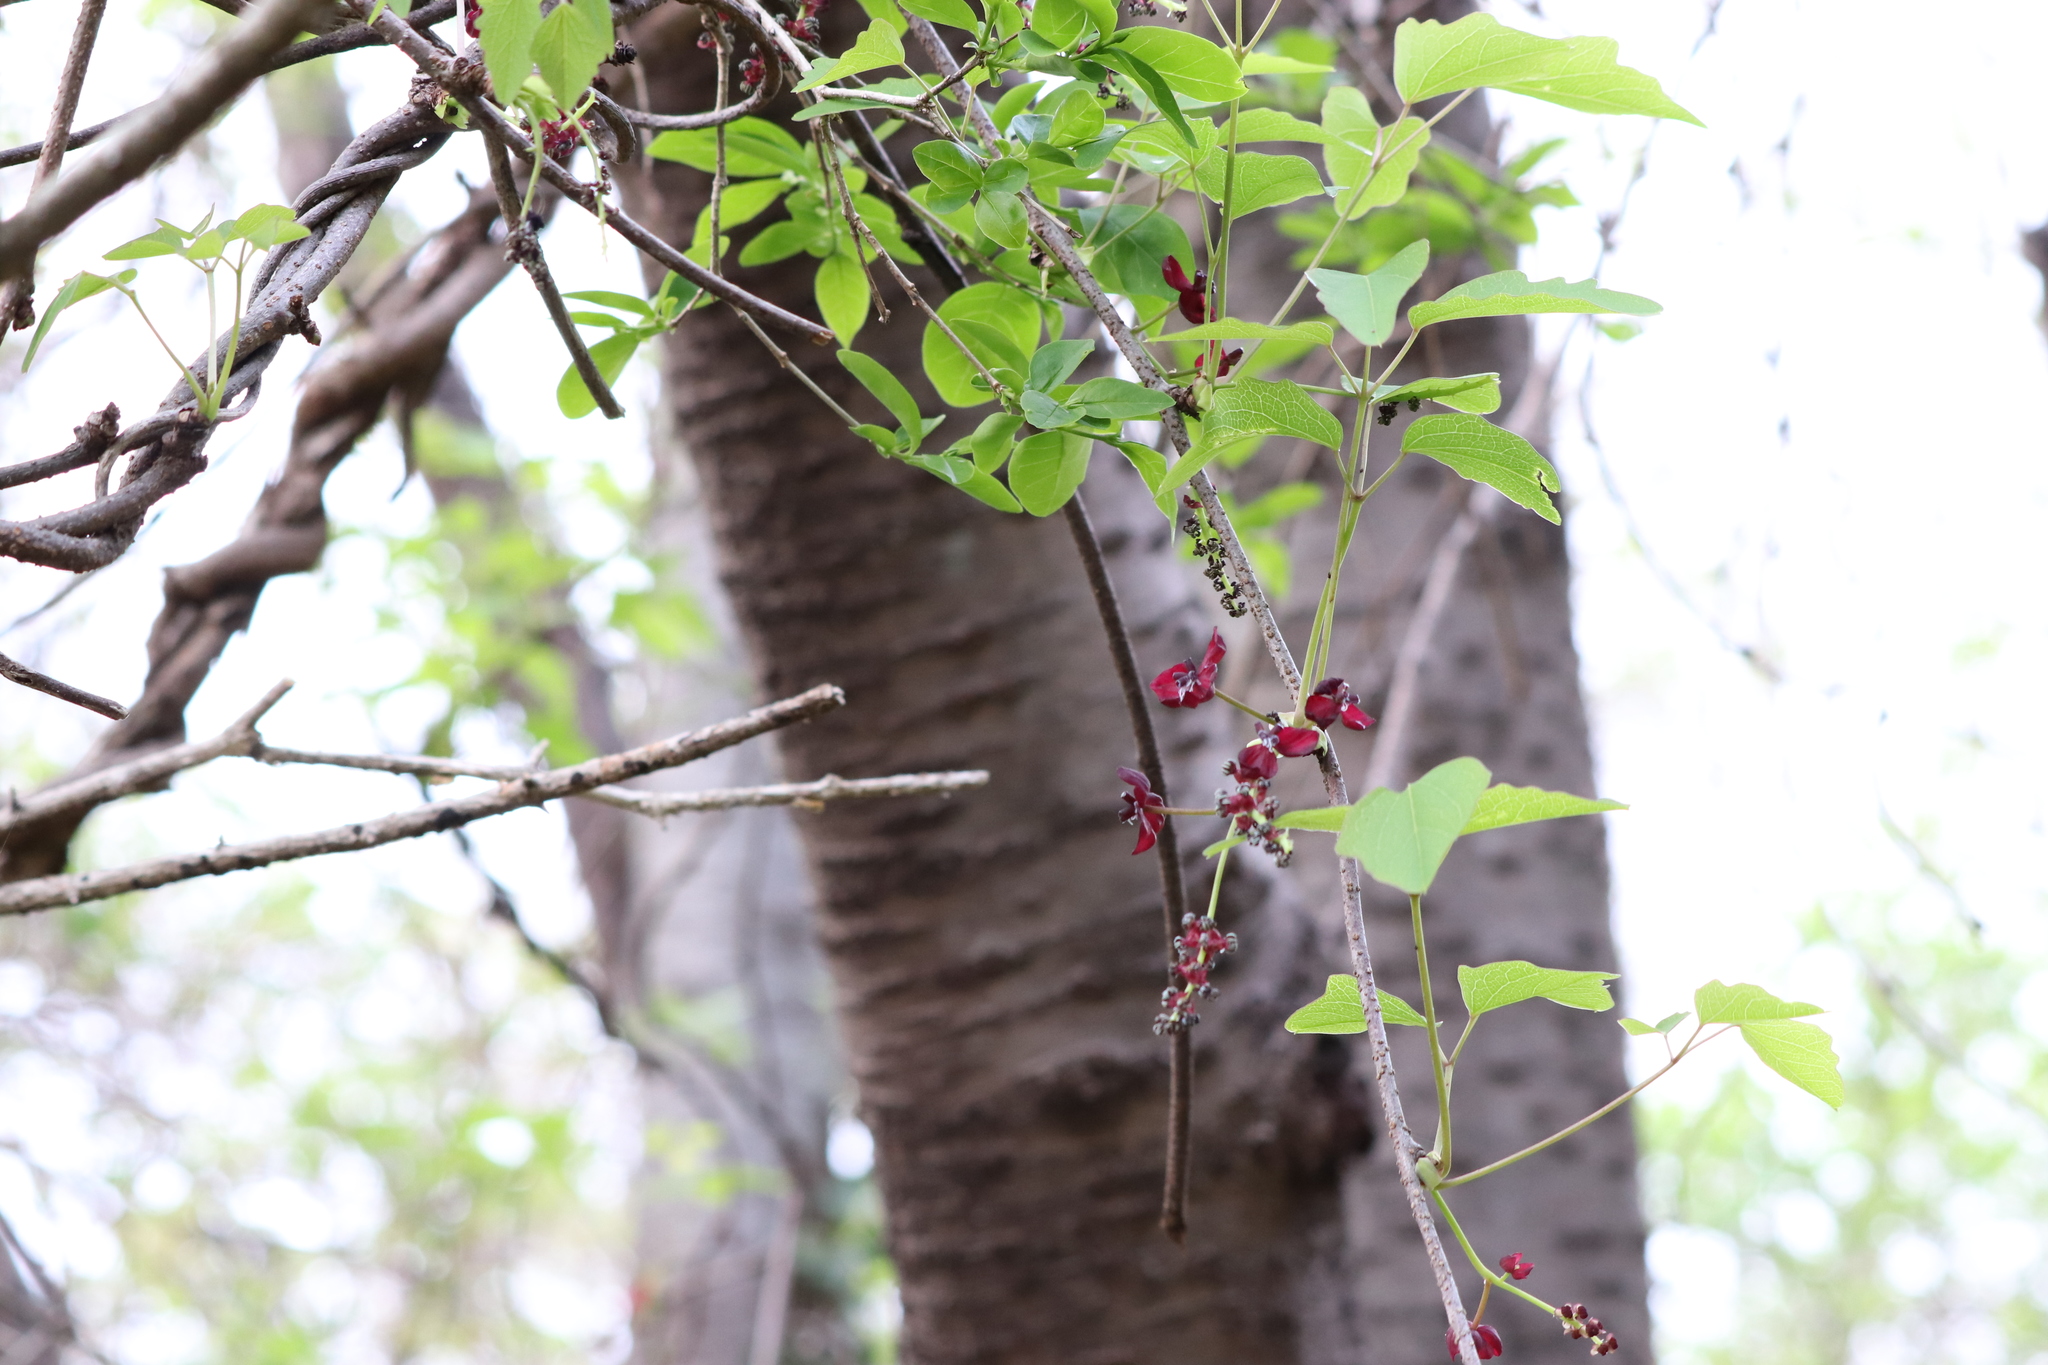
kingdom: Plantae
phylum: Tracheophyta
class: Magnoliopsida
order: Ranunculales
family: Lardizabalaceae
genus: Akebia
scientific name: Akebia trifoliata
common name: Chocolate-vine
